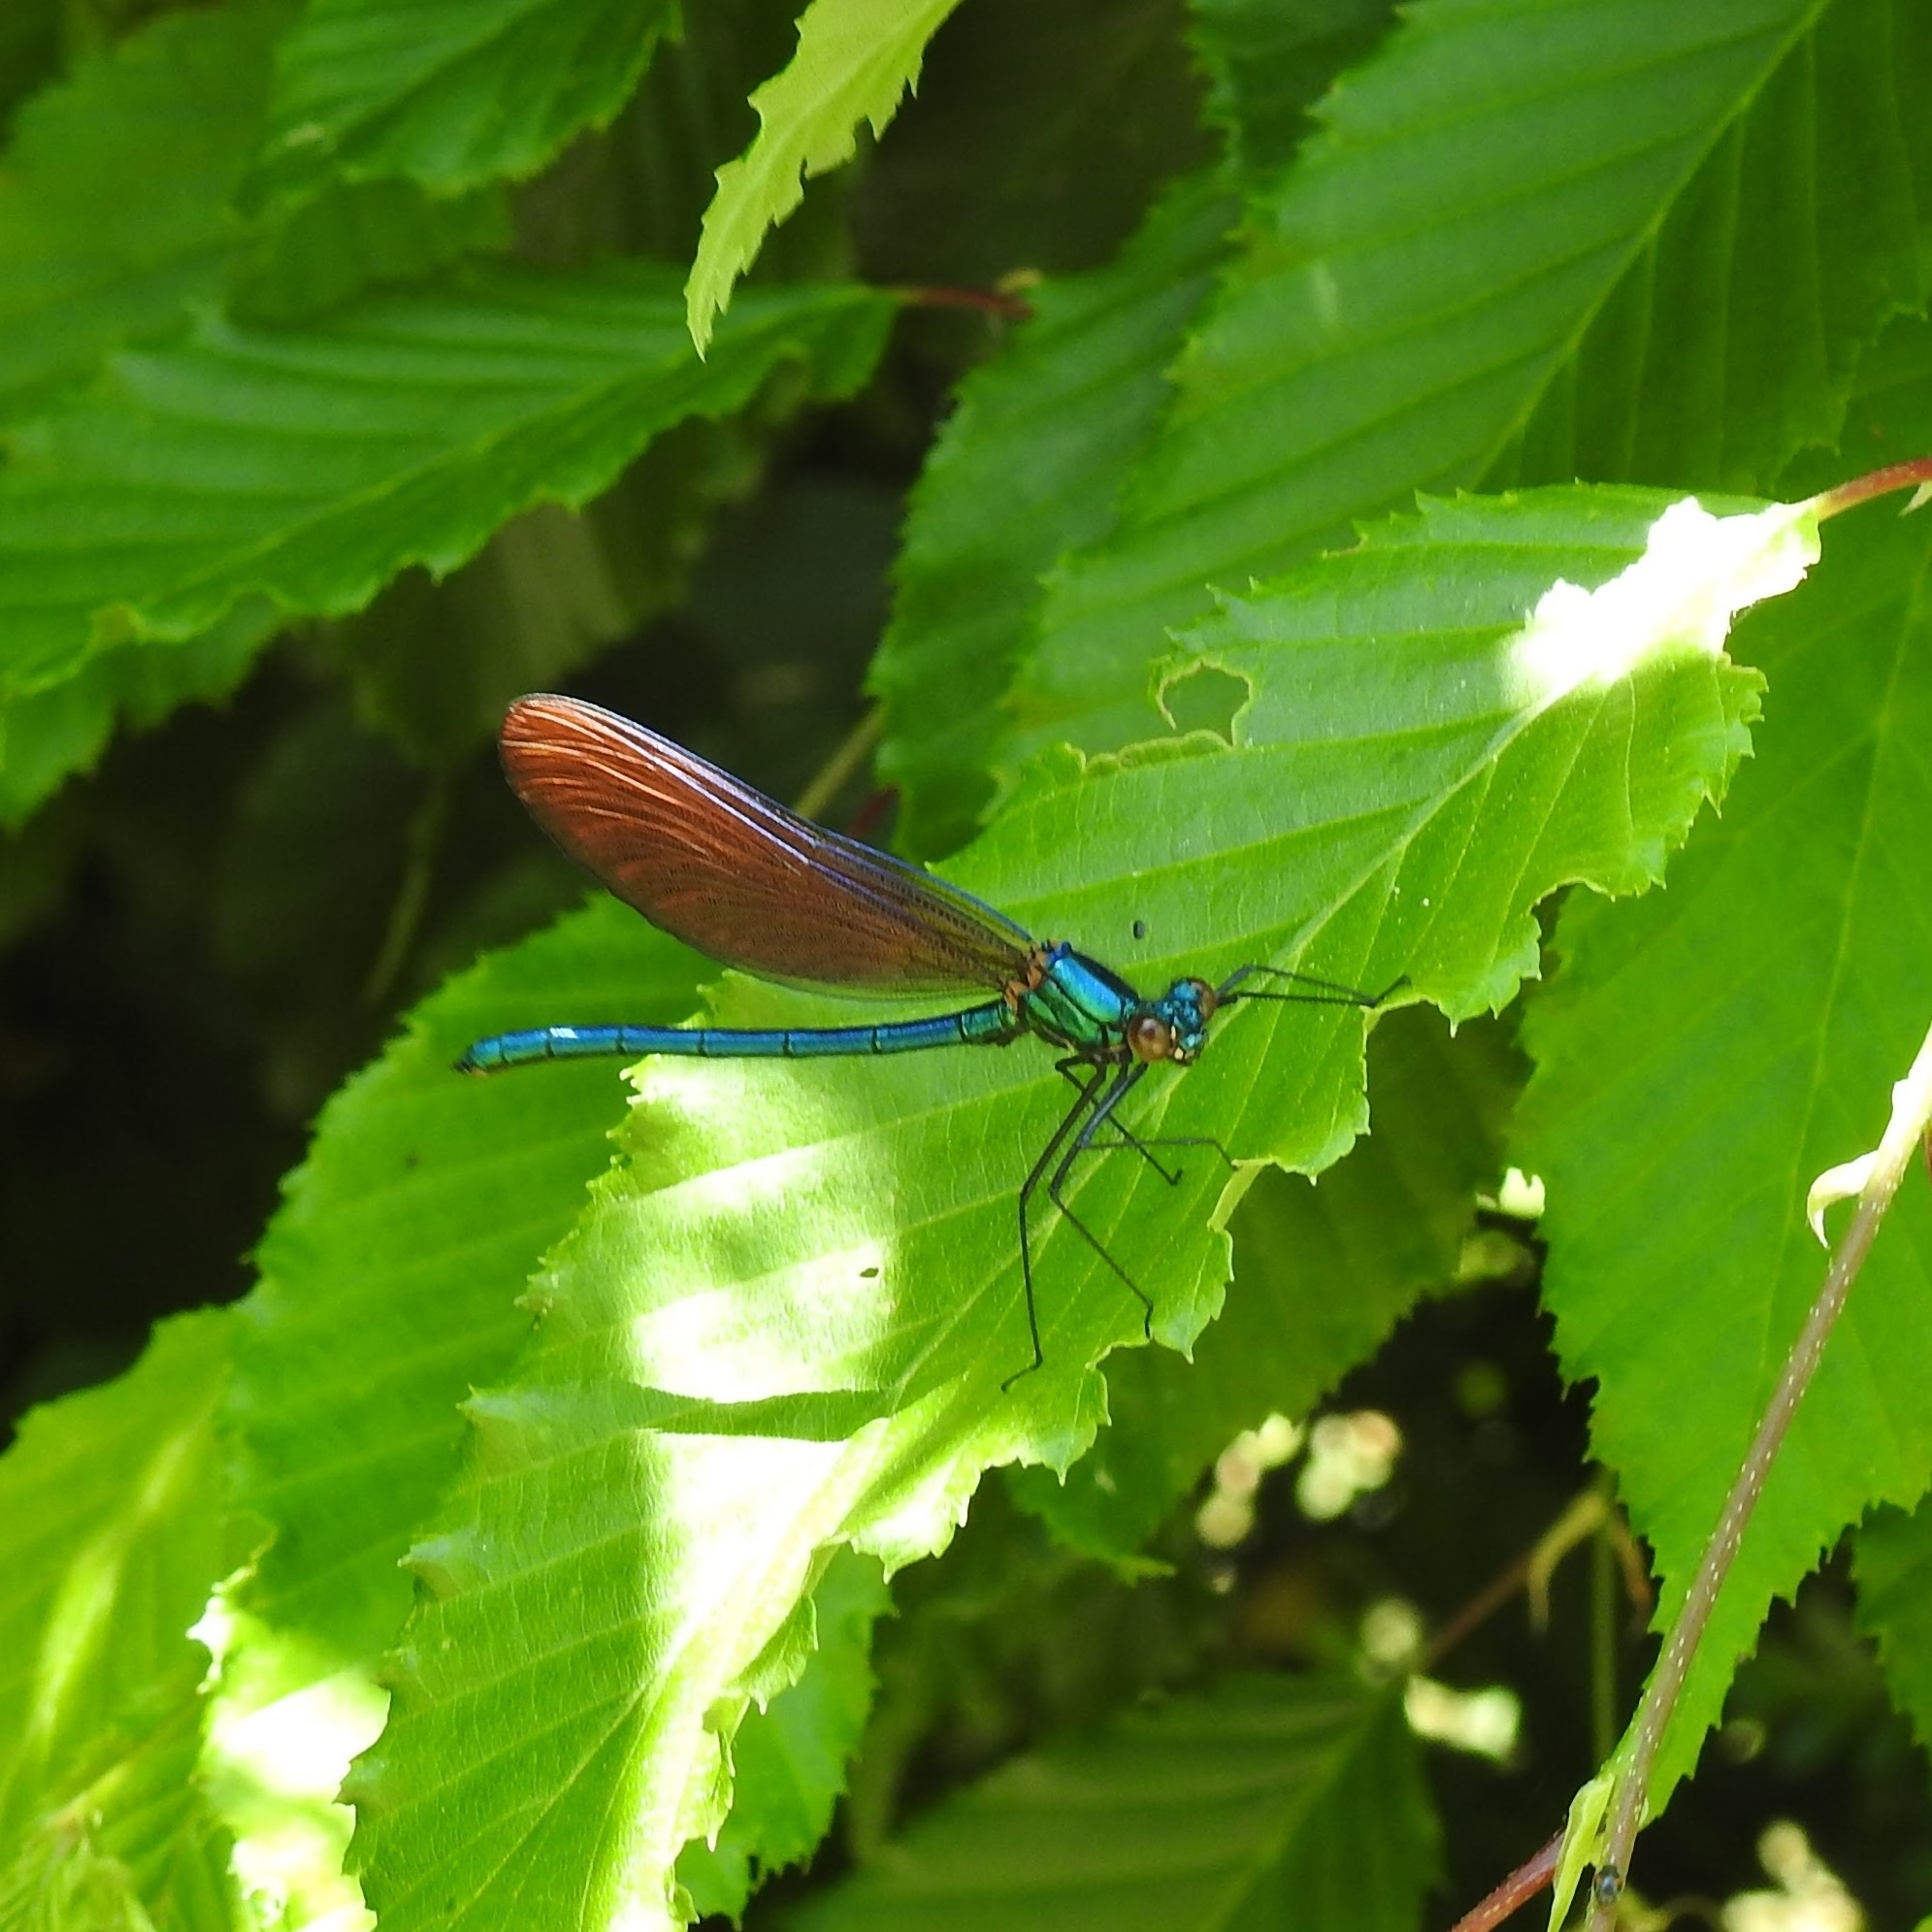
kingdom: Animalia
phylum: Arthropoda
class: Insecta
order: Odonata
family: Calopterygidae
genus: Calopteryx
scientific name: Calopteryx virgo
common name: Beautiful demoiselle
